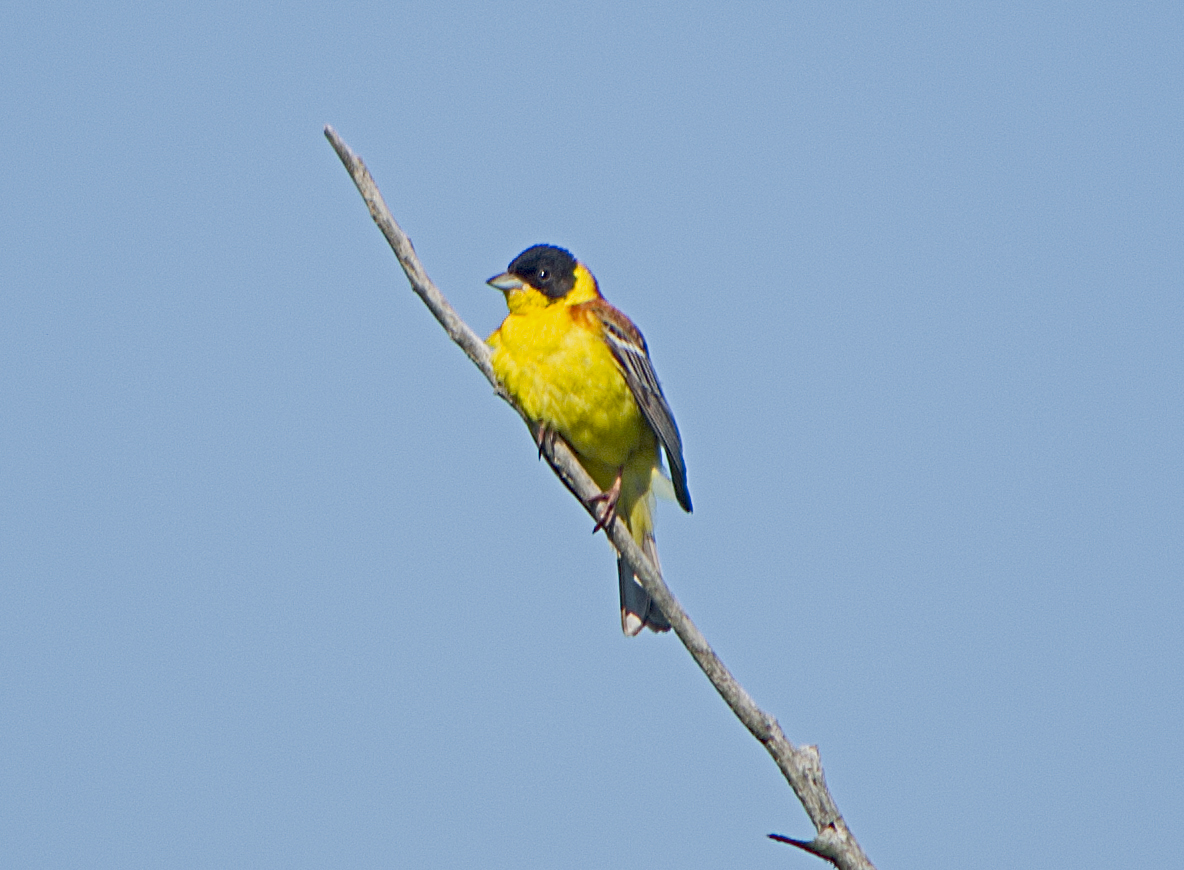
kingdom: Animalia
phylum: Chordata
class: Aves
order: Passeriformes
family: Emberizidae
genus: Emberiza
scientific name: Emberiza melanocephala
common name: Black-headed bunting
